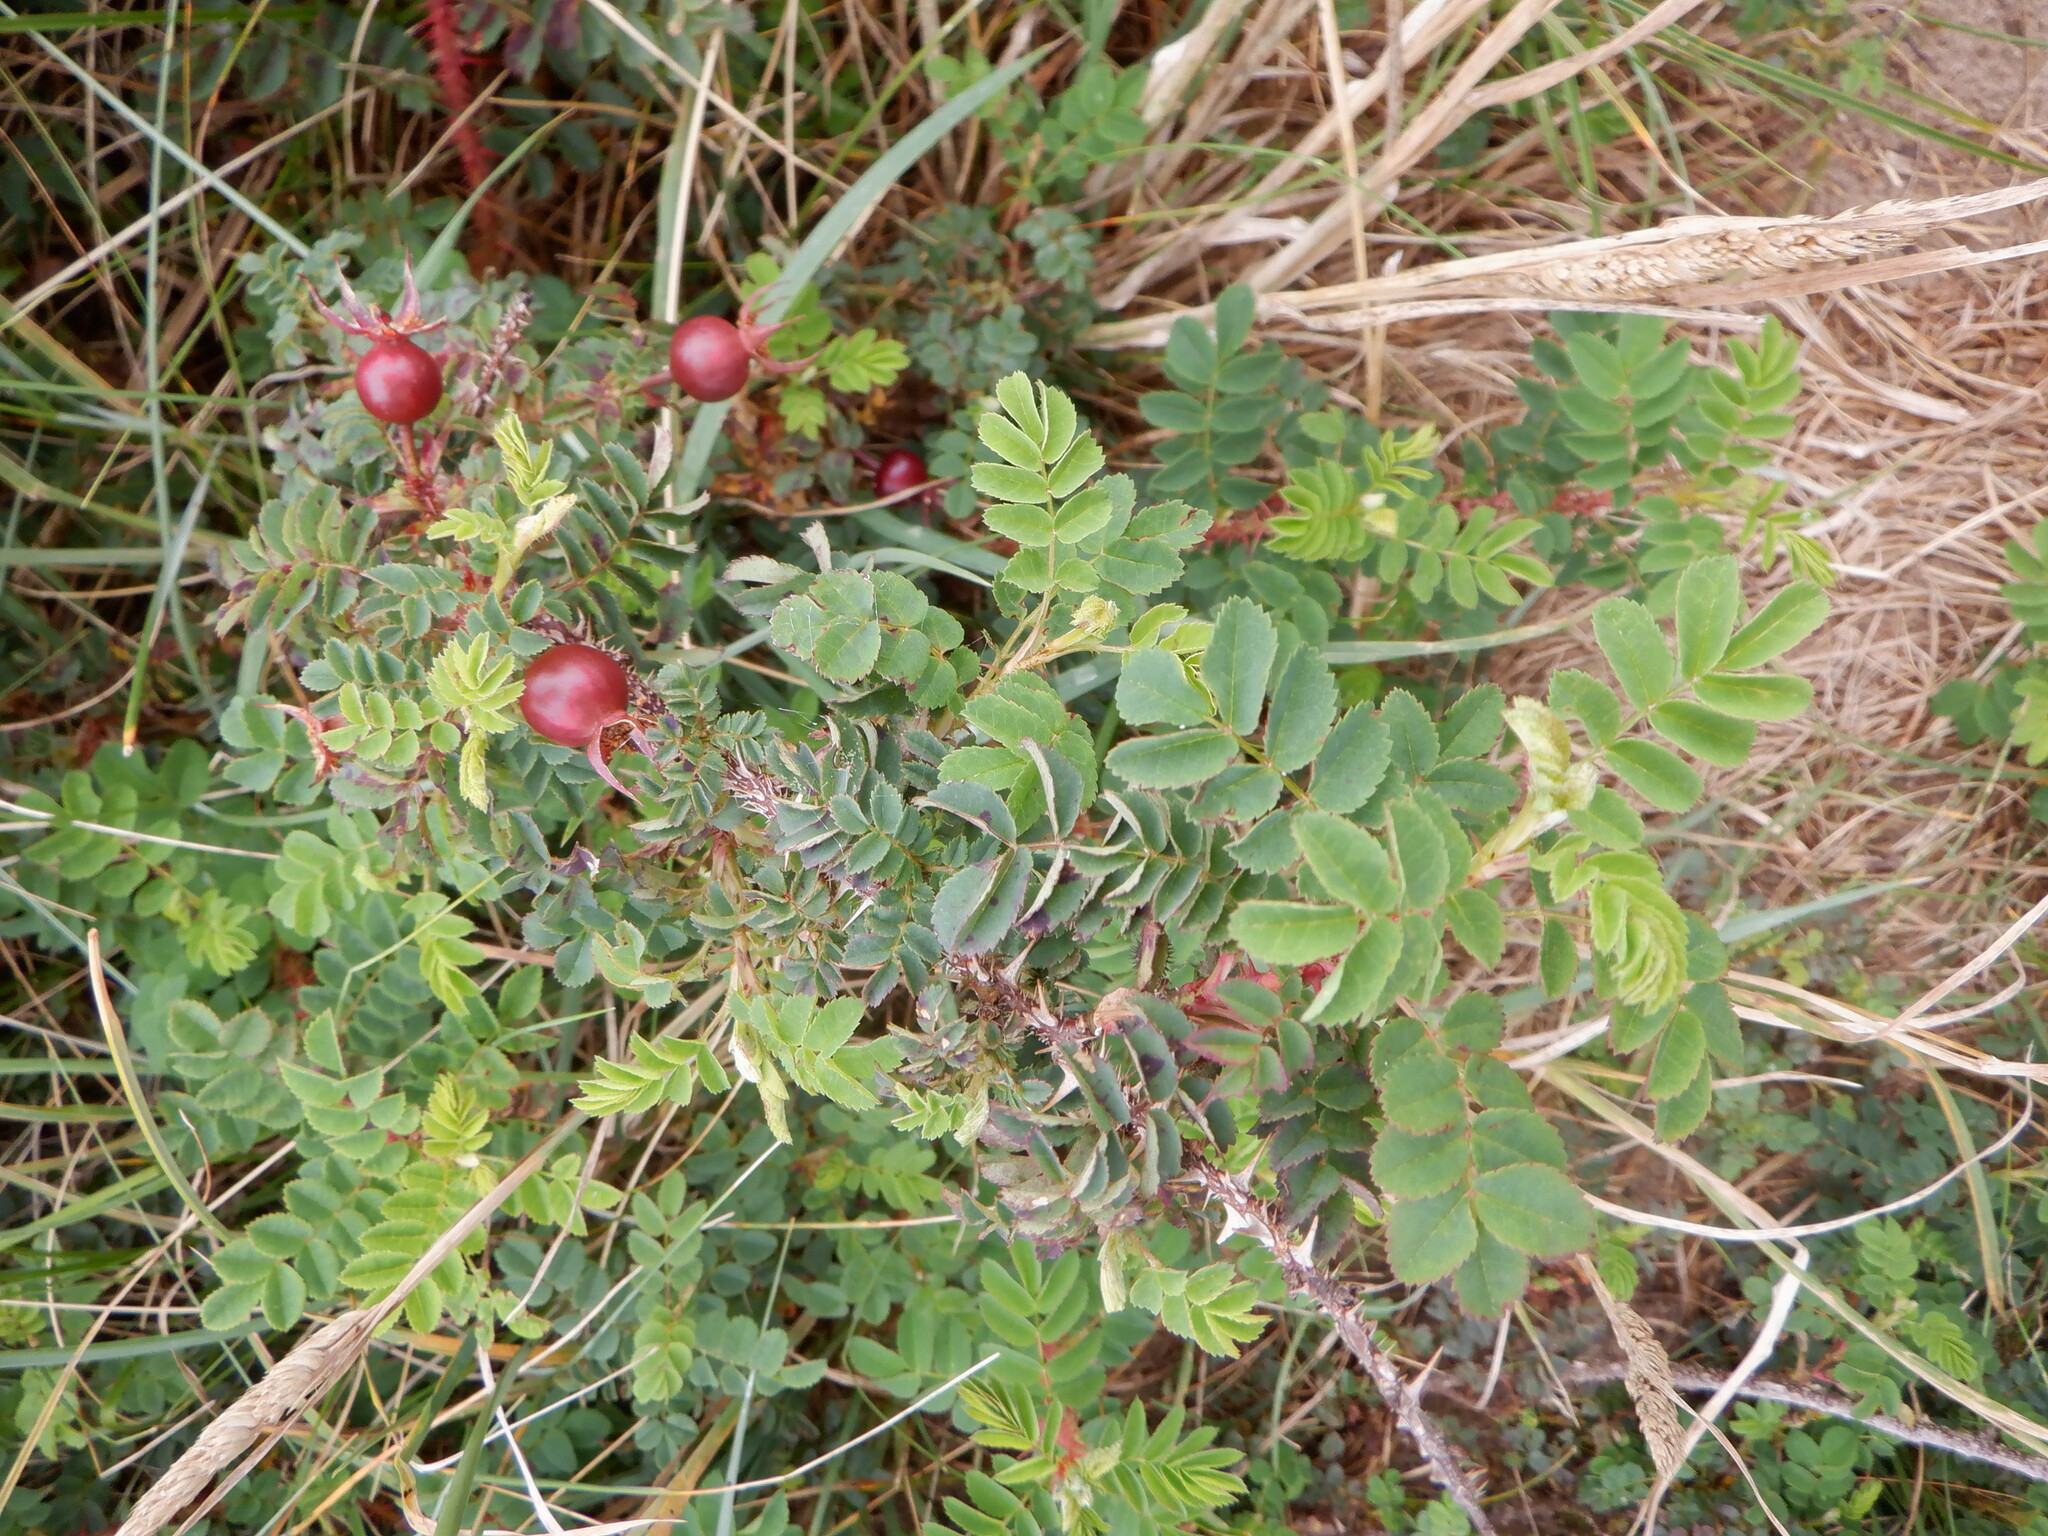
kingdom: Plantae
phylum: Tracheophyta
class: Magnoliopsida
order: Rosales
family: Rosaceae
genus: Rosa
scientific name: Rosa spinosissima
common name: Burnet rose
